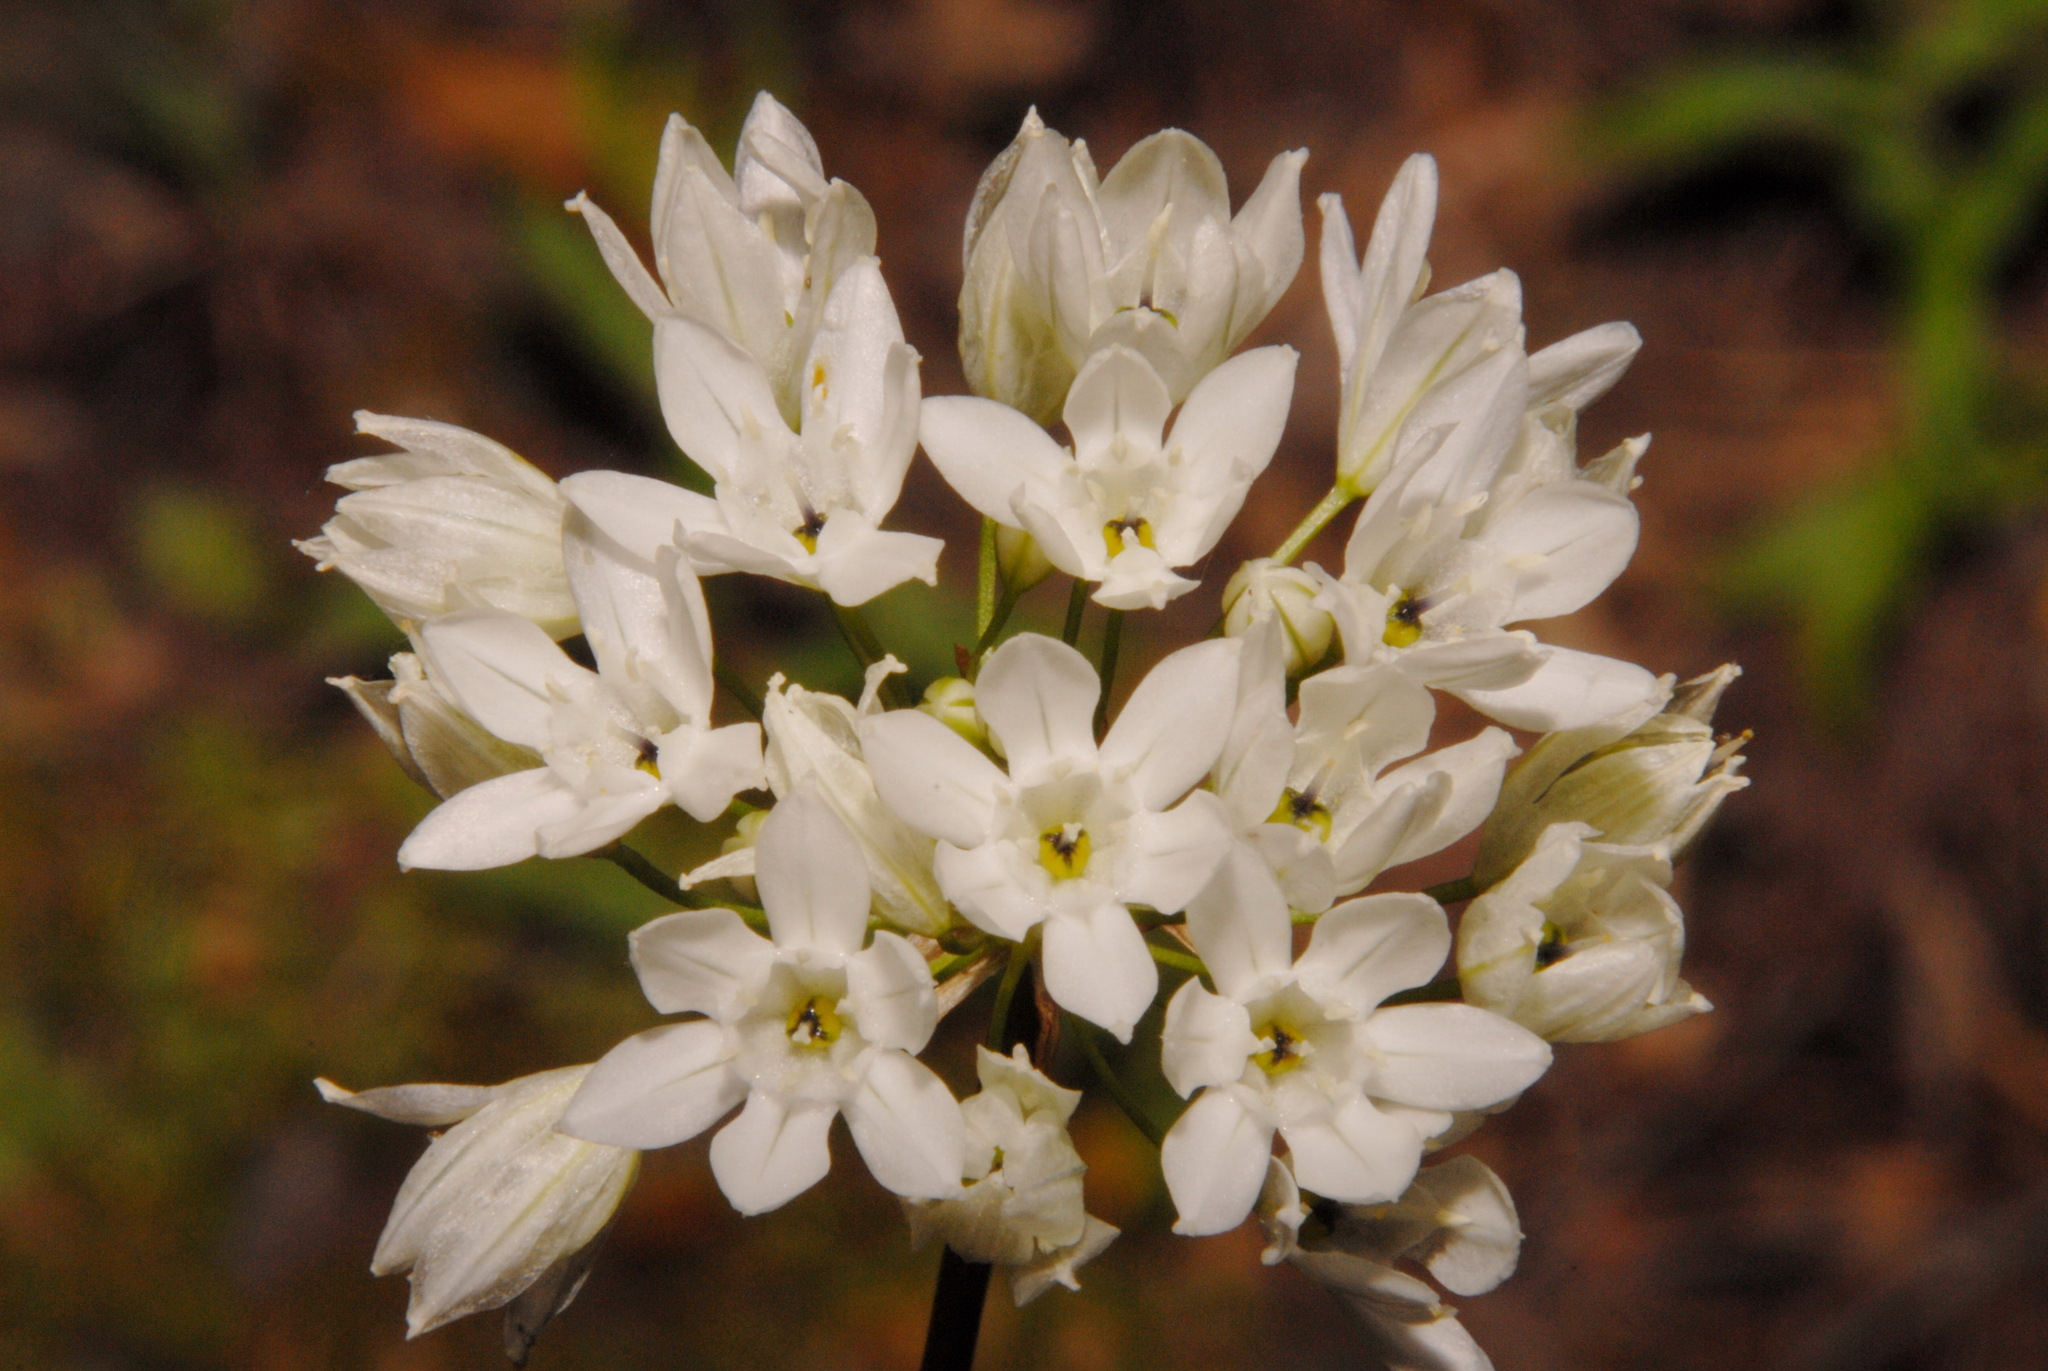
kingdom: Plantae
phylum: Tracheophyta
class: Liliopsida
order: Asparagales
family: Asparagaceae
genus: Triteleia
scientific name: Triteleia hyacinthina
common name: White brodiaea
